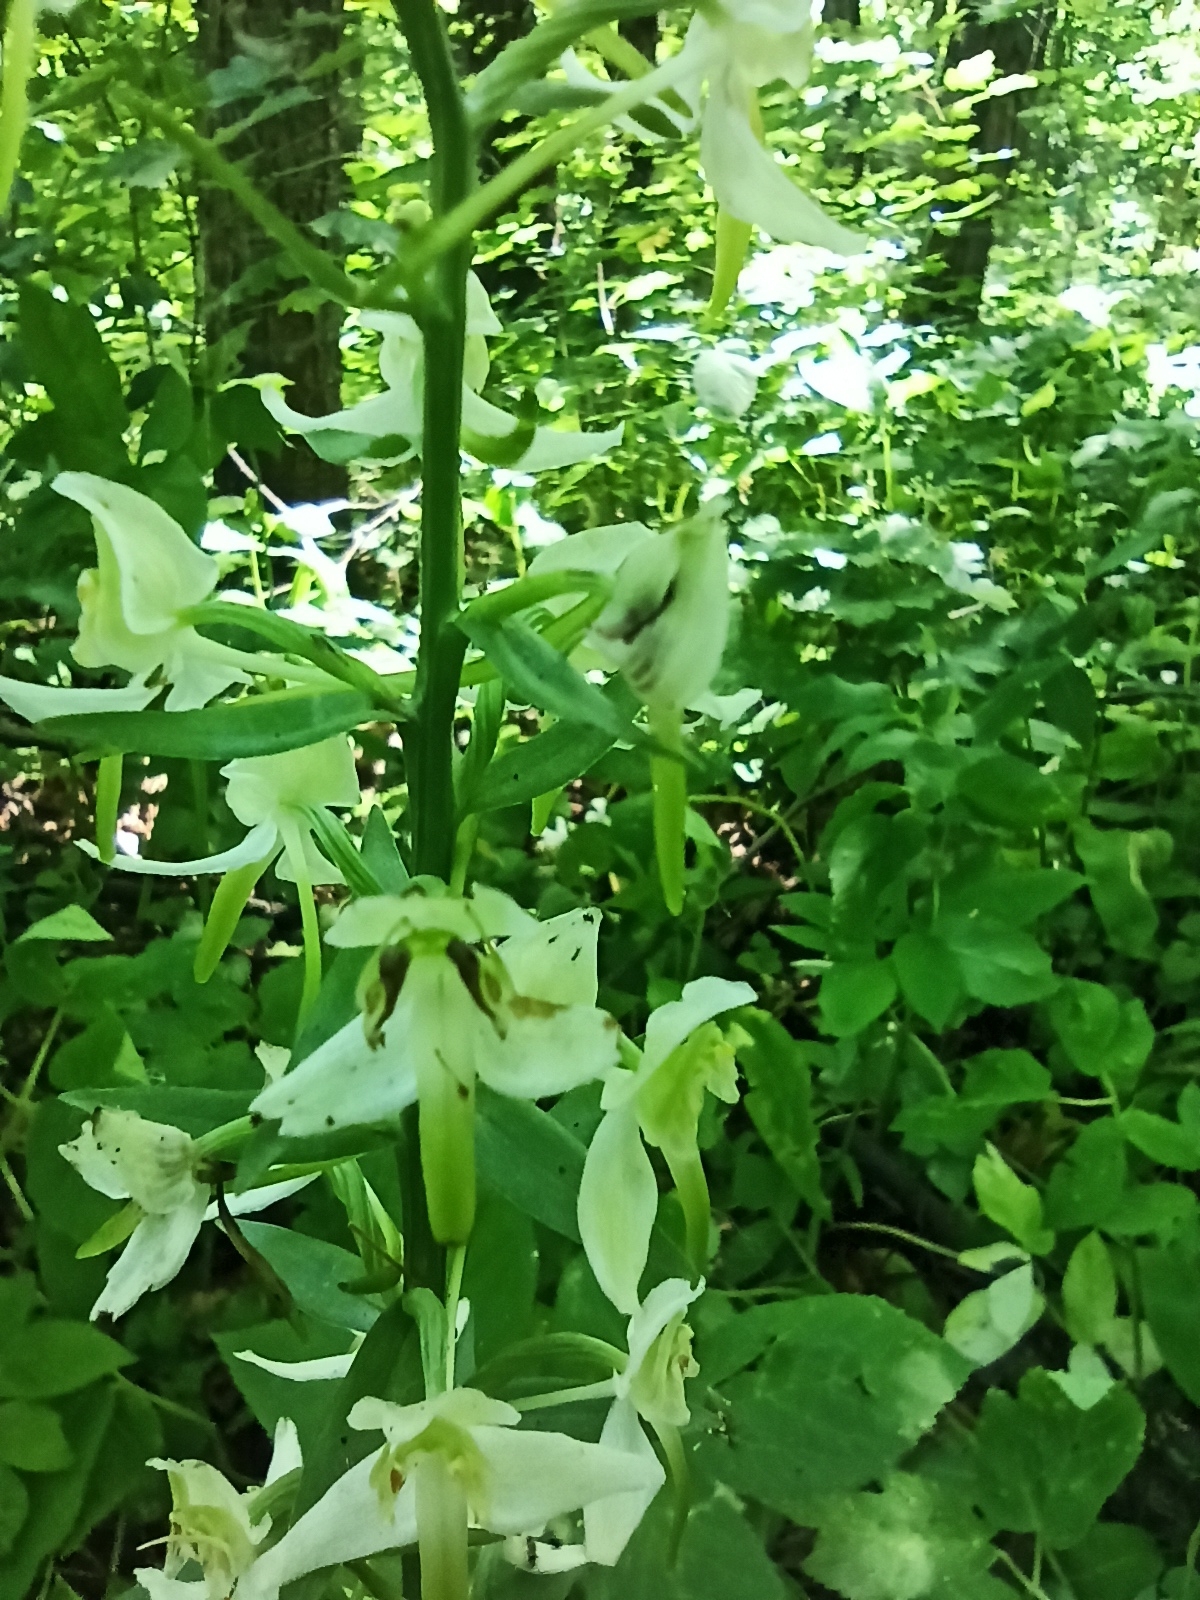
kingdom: Plantae
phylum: Tracheophyta
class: Liliopsida
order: Asparagales
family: Orchidaceae
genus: Platanthera
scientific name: Platanthera chlorantha
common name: Greater butterfly-orchid
